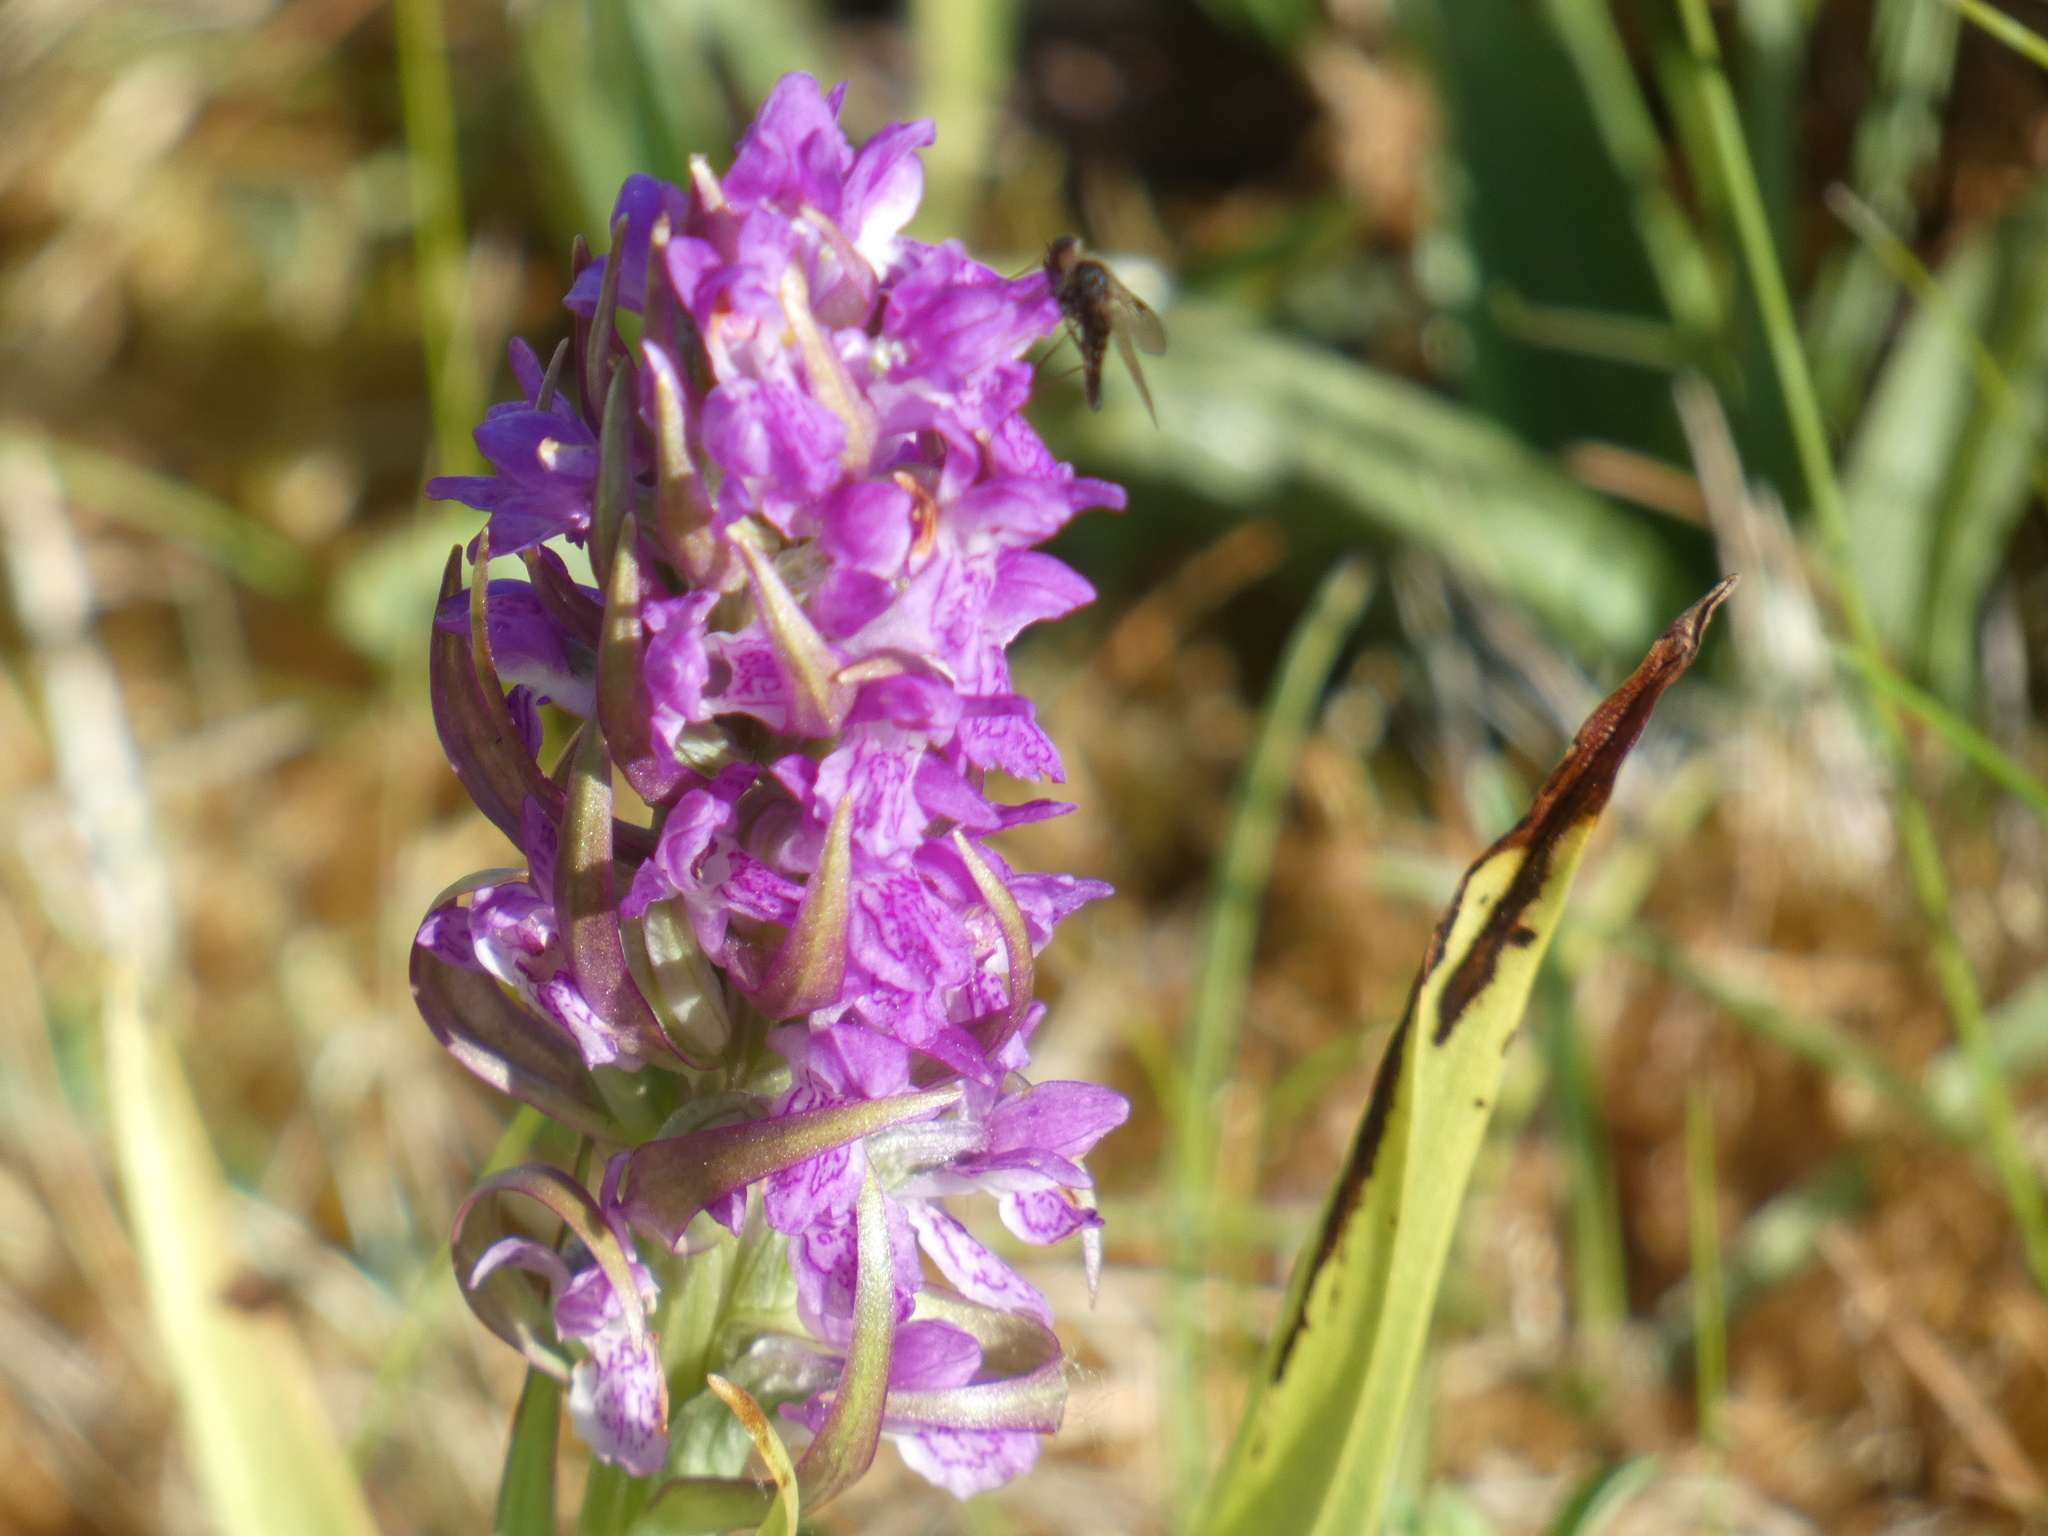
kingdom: Plantae
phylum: Tracheophyta
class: Liliopsida
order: Asparagales
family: Orchidaceae
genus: Dactylorhiza
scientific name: Dactylorhiza incarnata
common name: Early marsh-orchid
